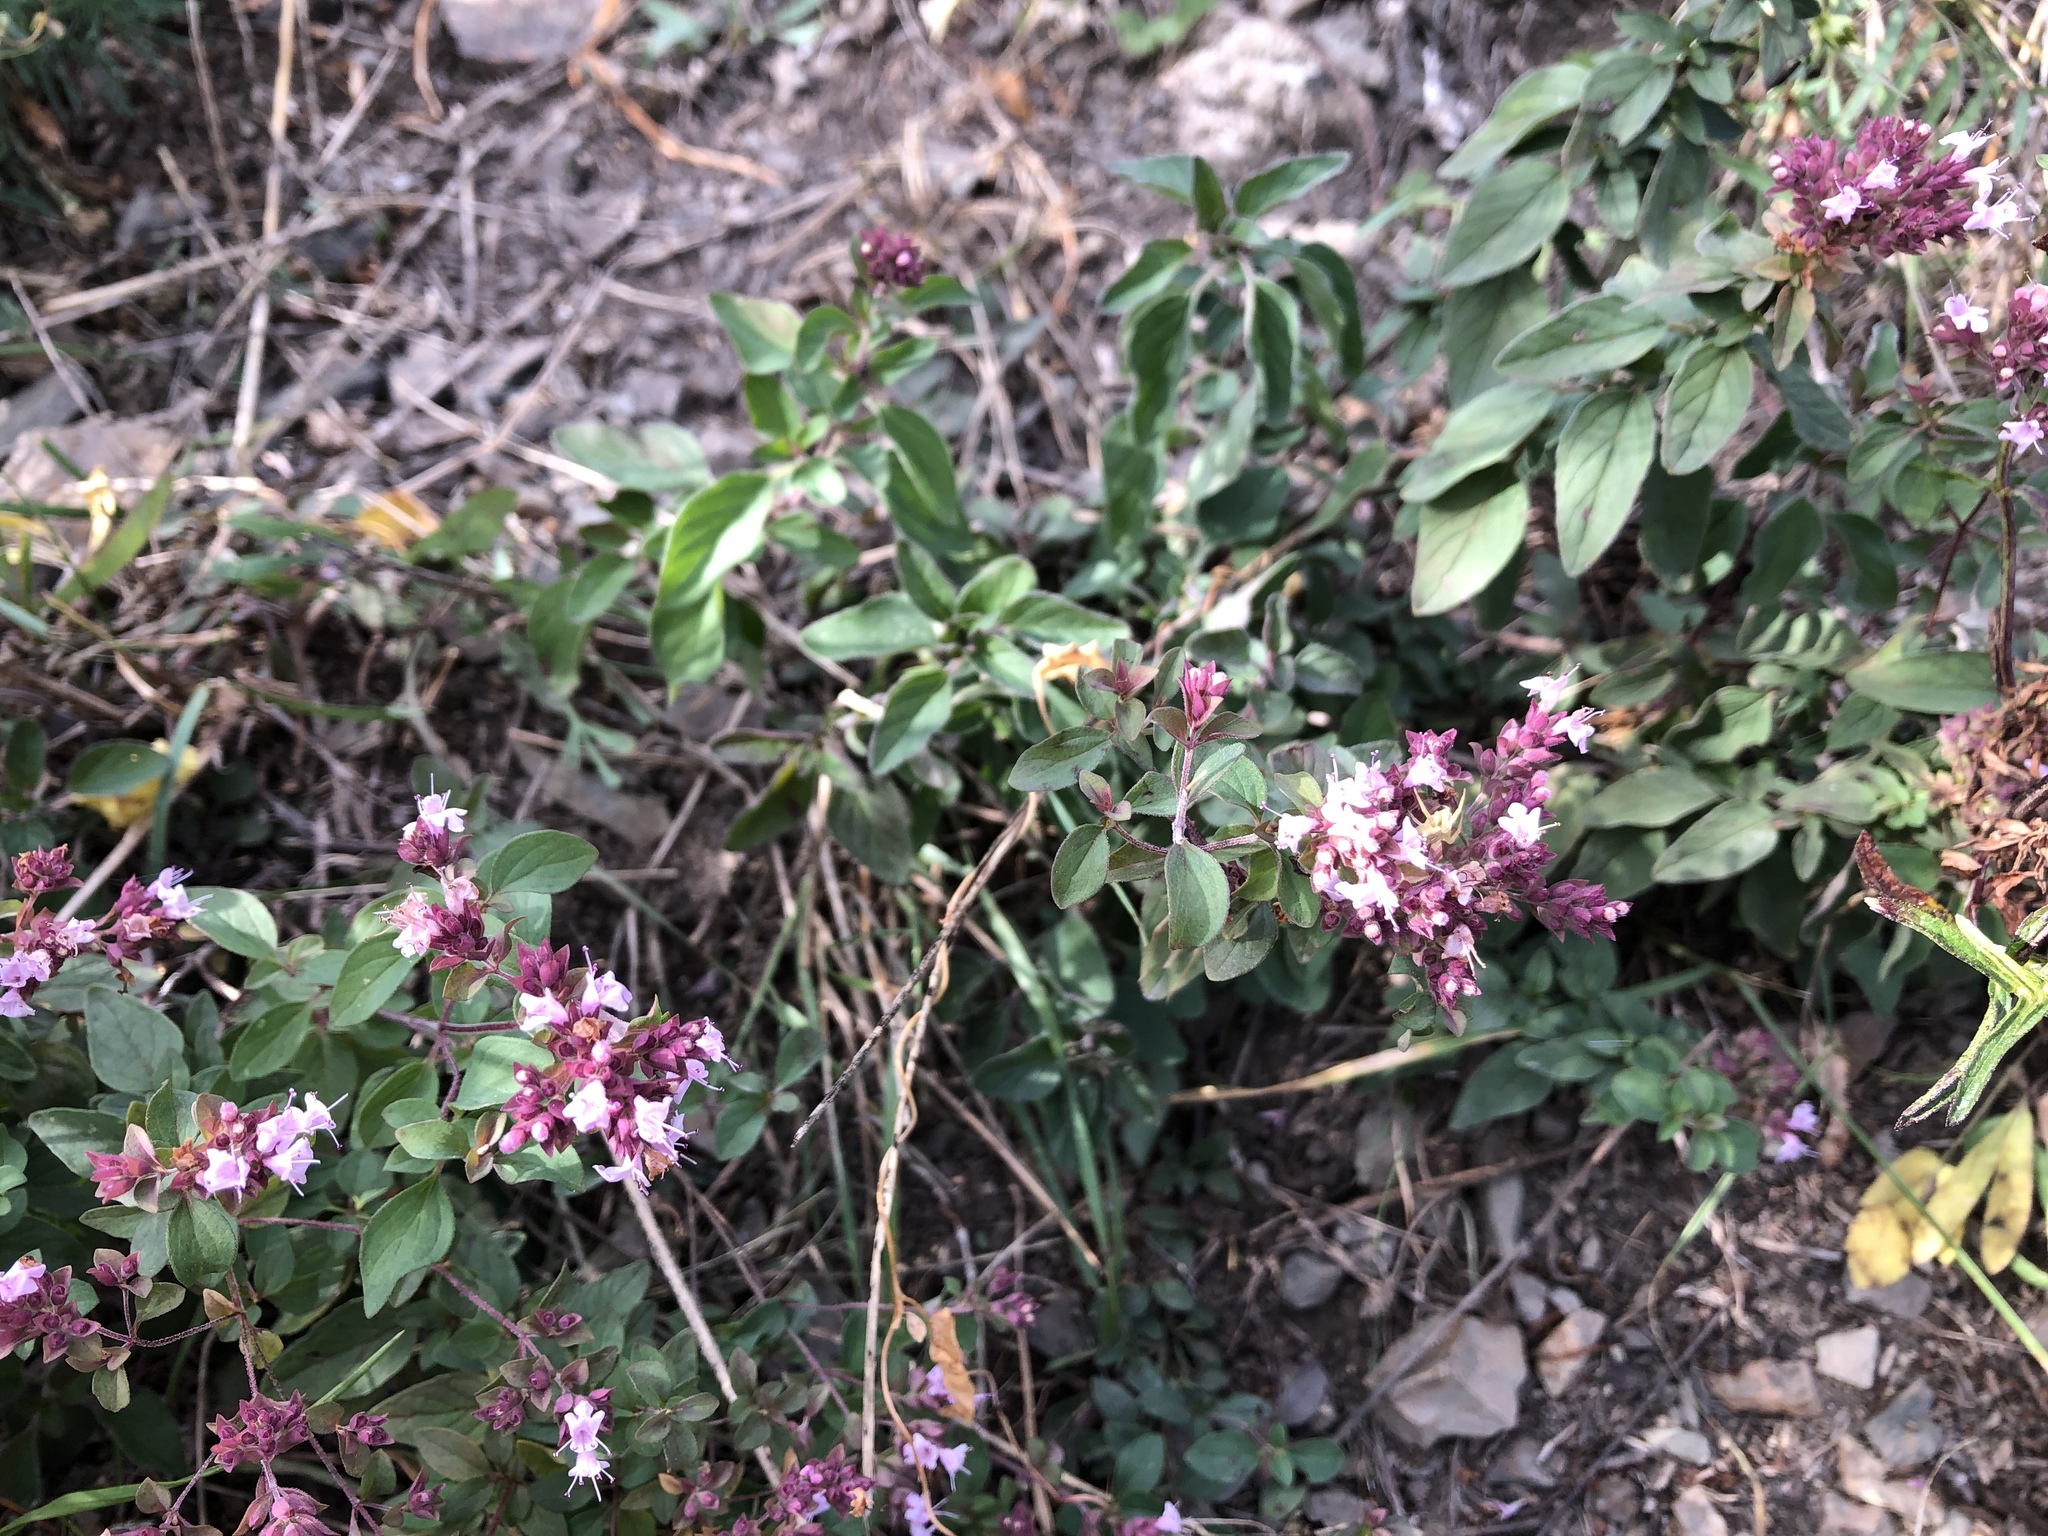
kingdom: Plantae
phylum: Tracheophyta
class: Magnoliopsida
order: Lamiales
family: Lamiaceae
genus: Origanum
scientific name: Origanum vulgare
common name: Wild marjoram
